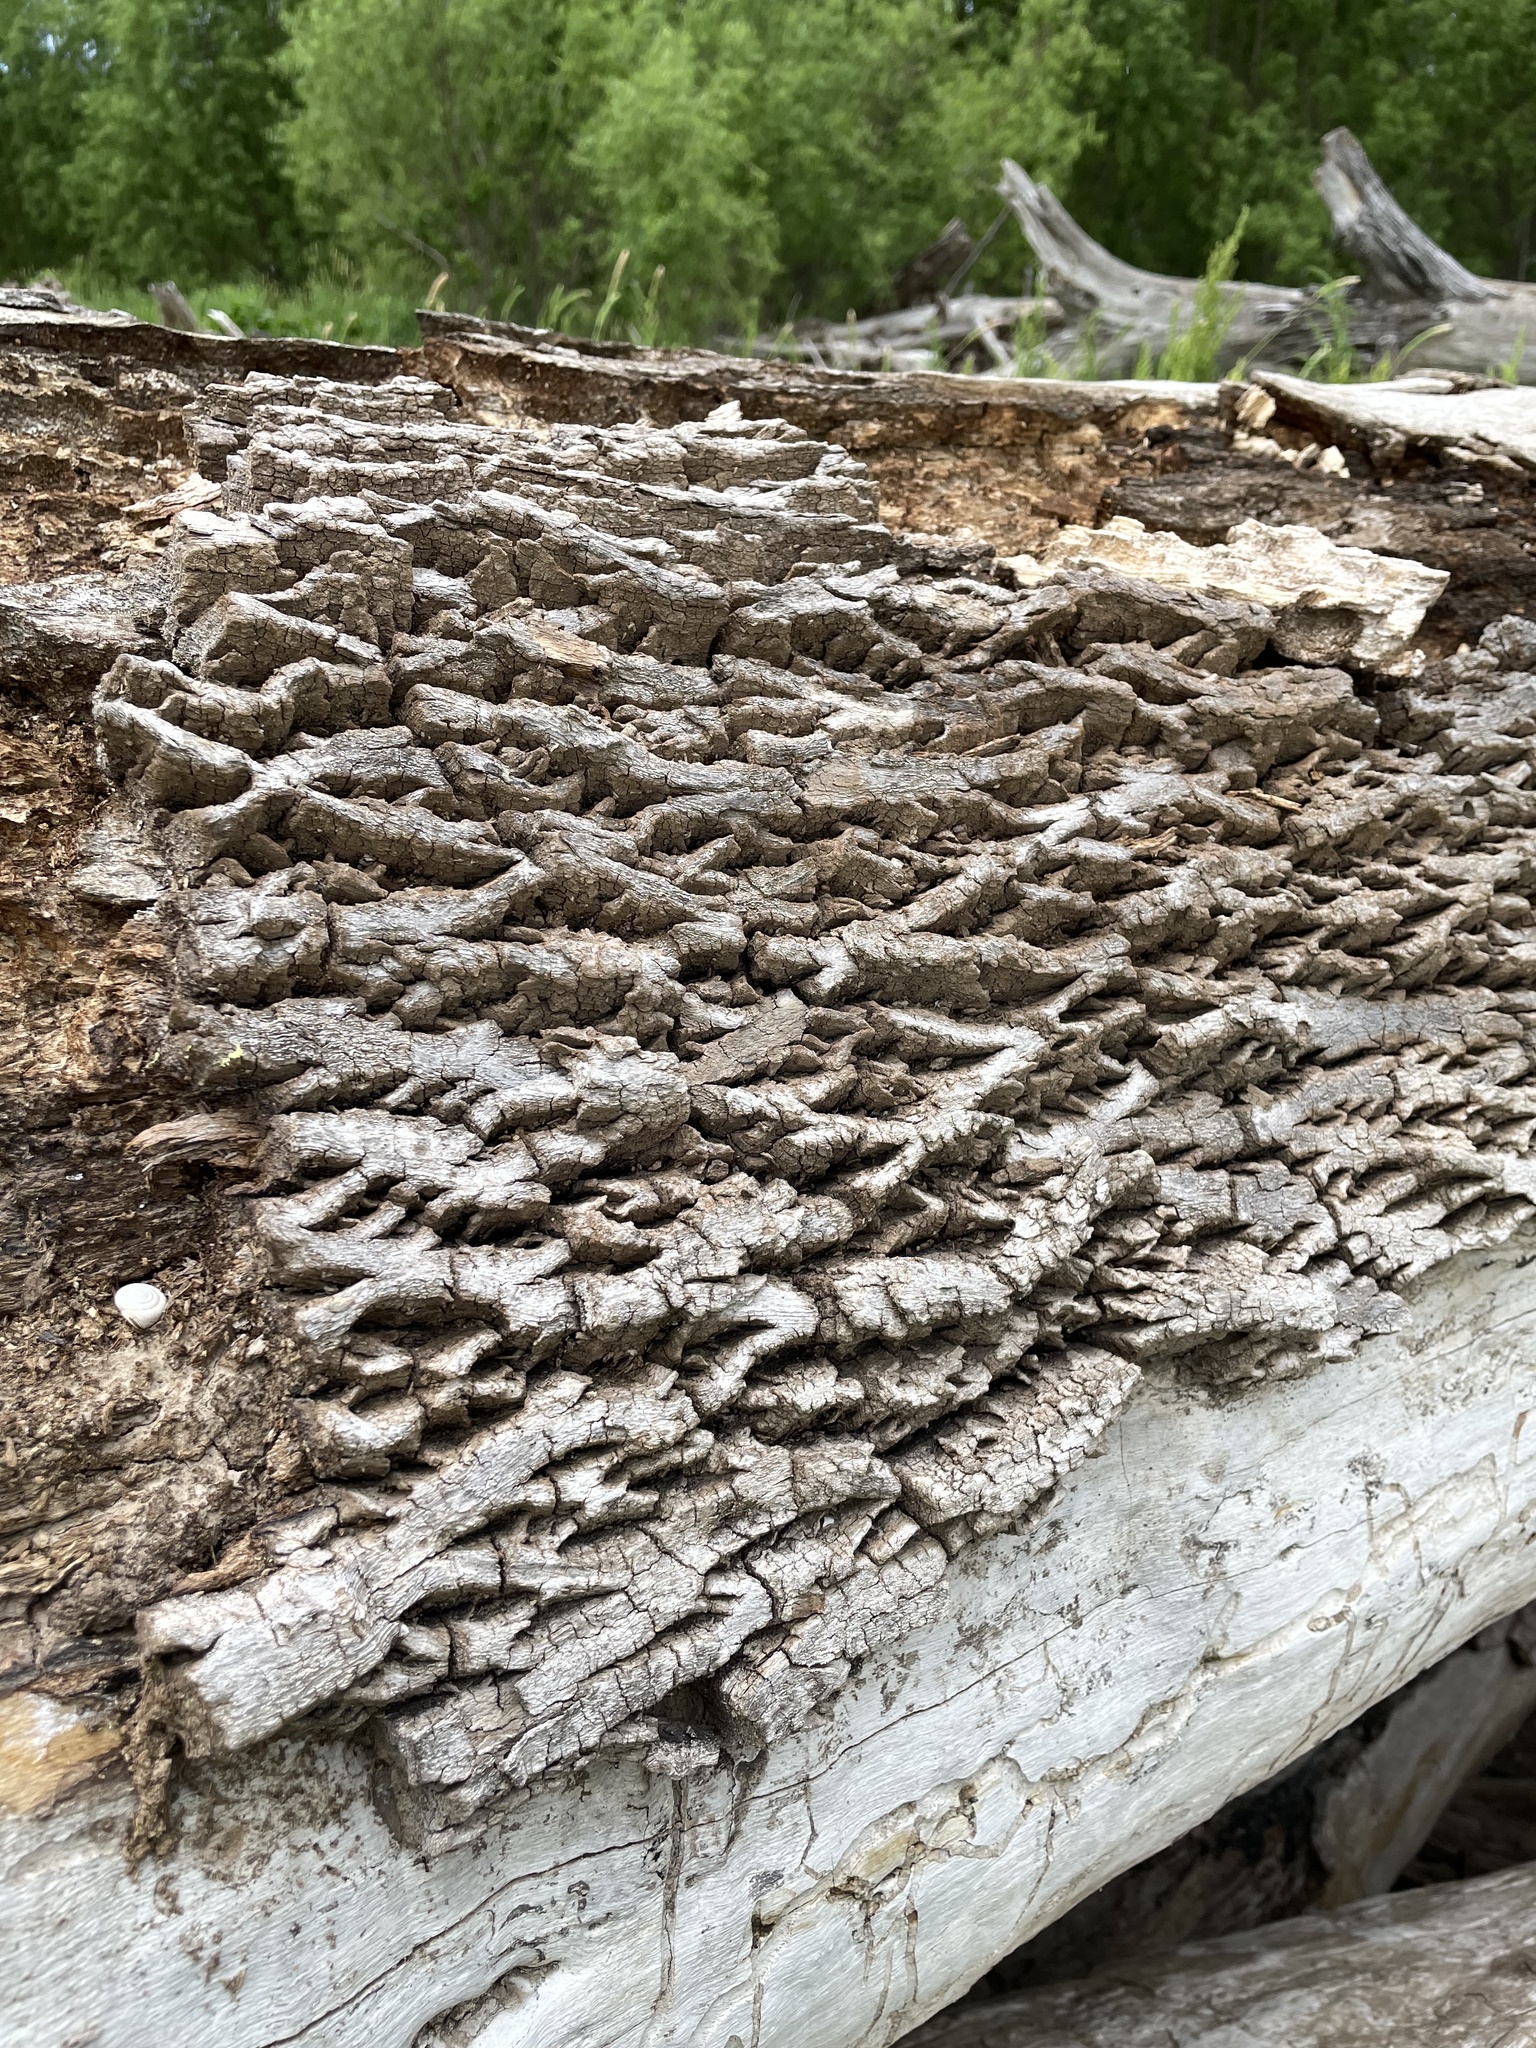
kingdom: Plantae
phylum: Tracheophyta
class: Magnoliopsida
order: Lamiales
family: Oleaceae
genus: Fraxinus
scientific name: Fraxinus pennsylvanica
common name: Green ash
